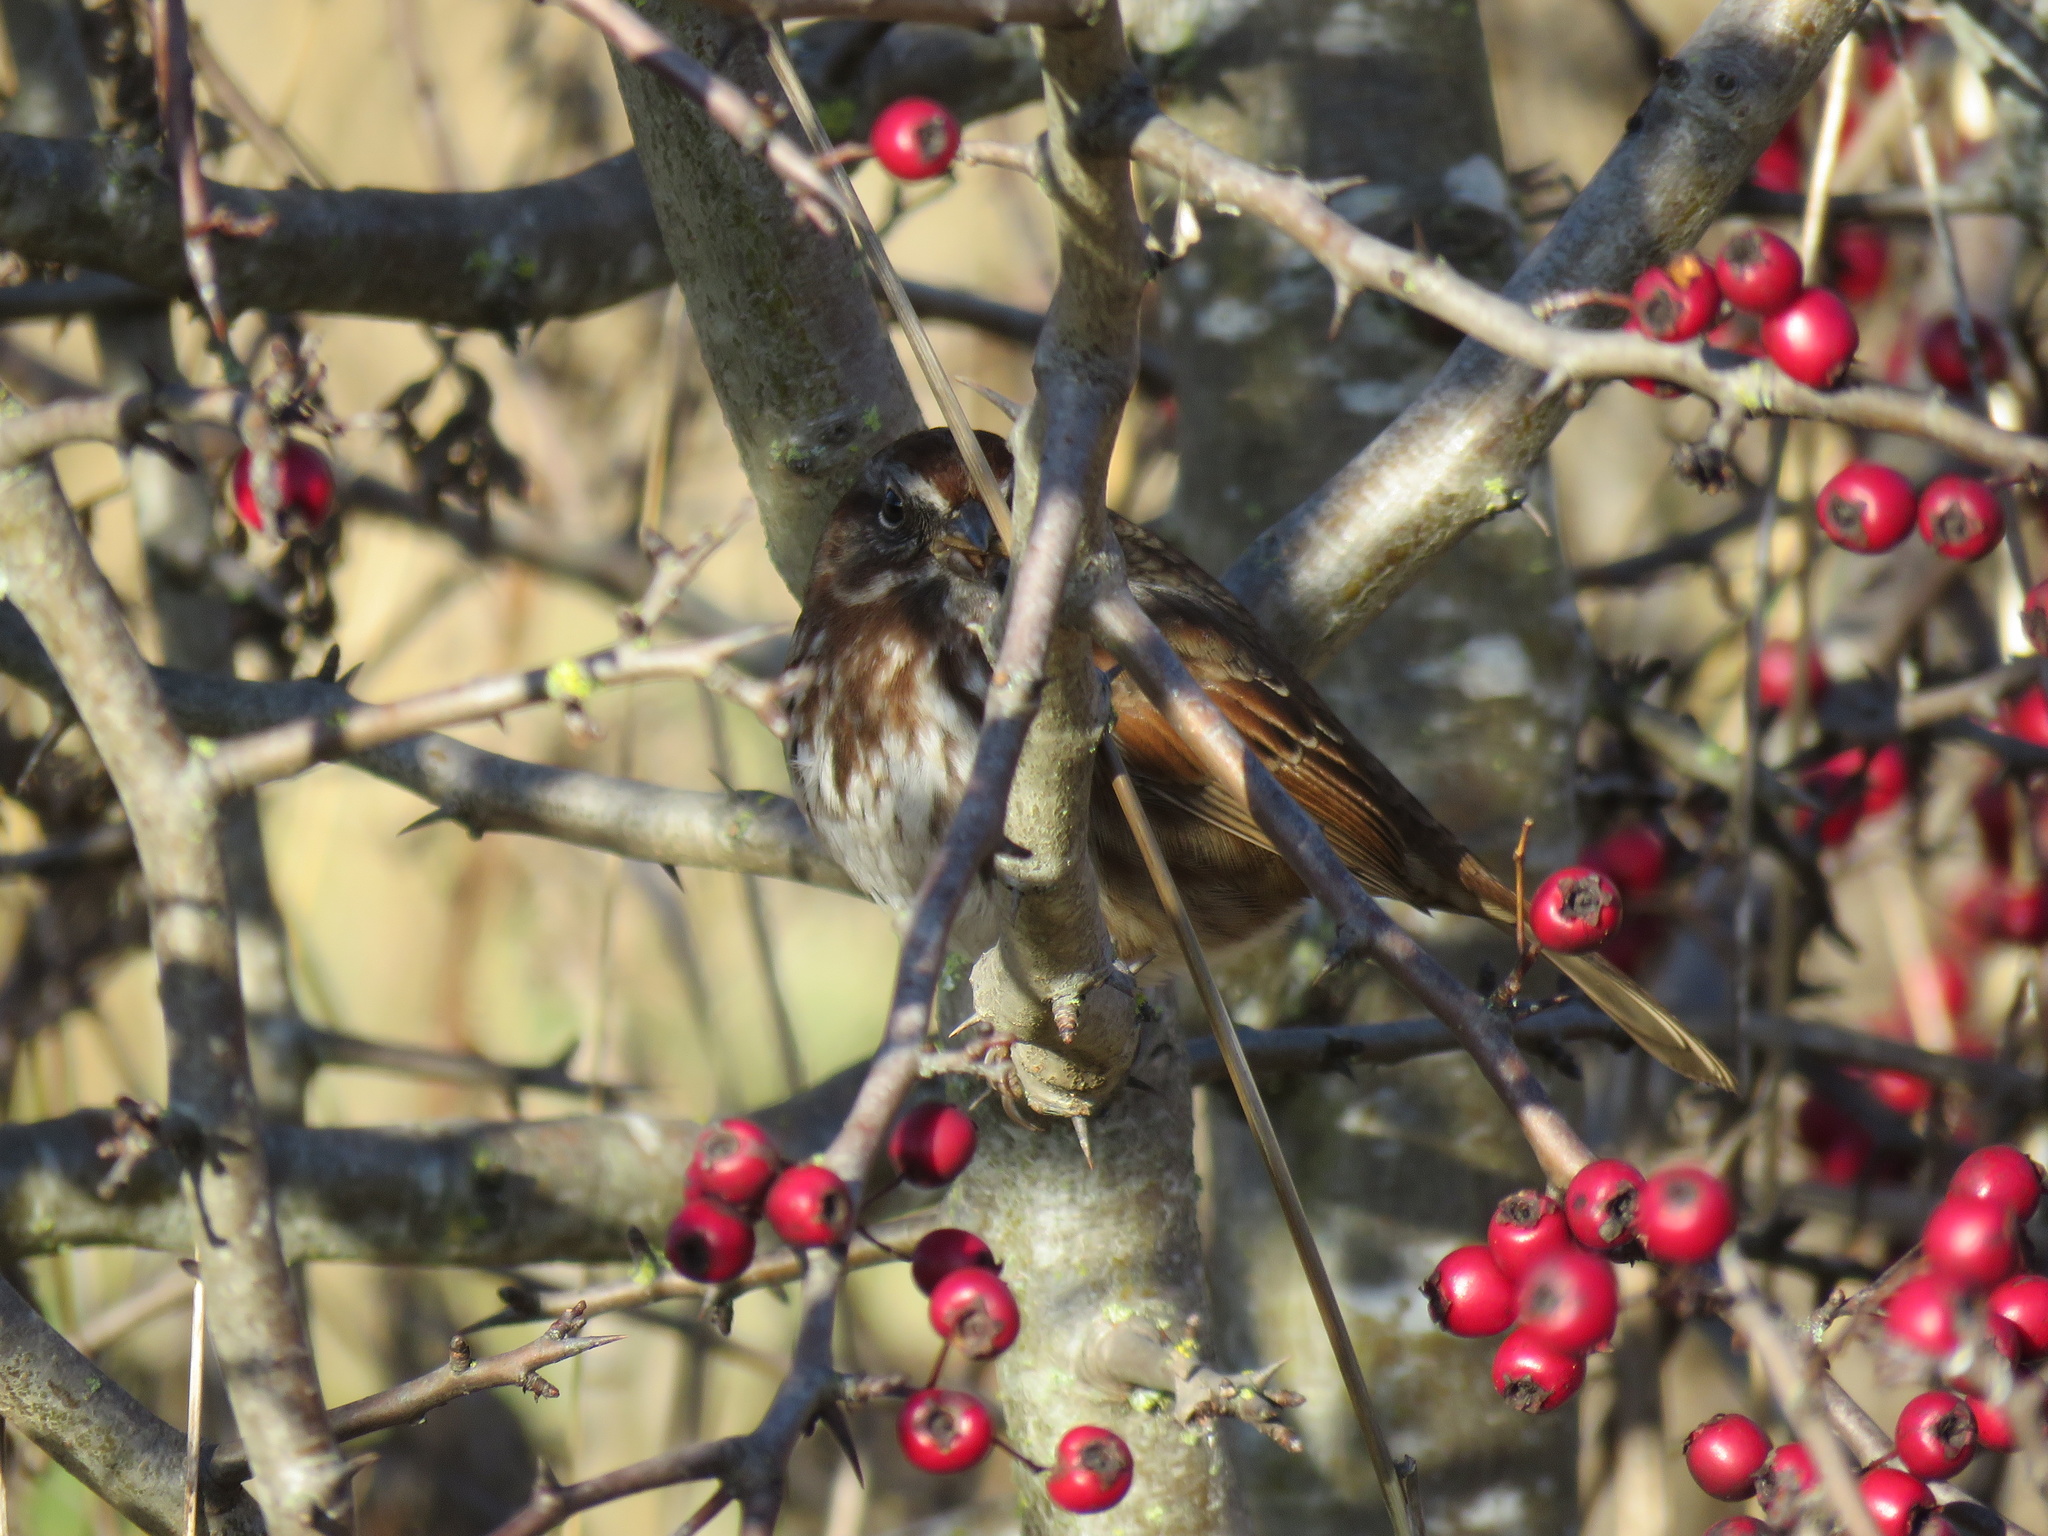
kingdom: Animalia
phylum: Chordata
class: Aves
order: Passeriformes
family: Passerellidae
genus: Melospiza
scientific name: Melospiza melodia
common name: Song sparrow
